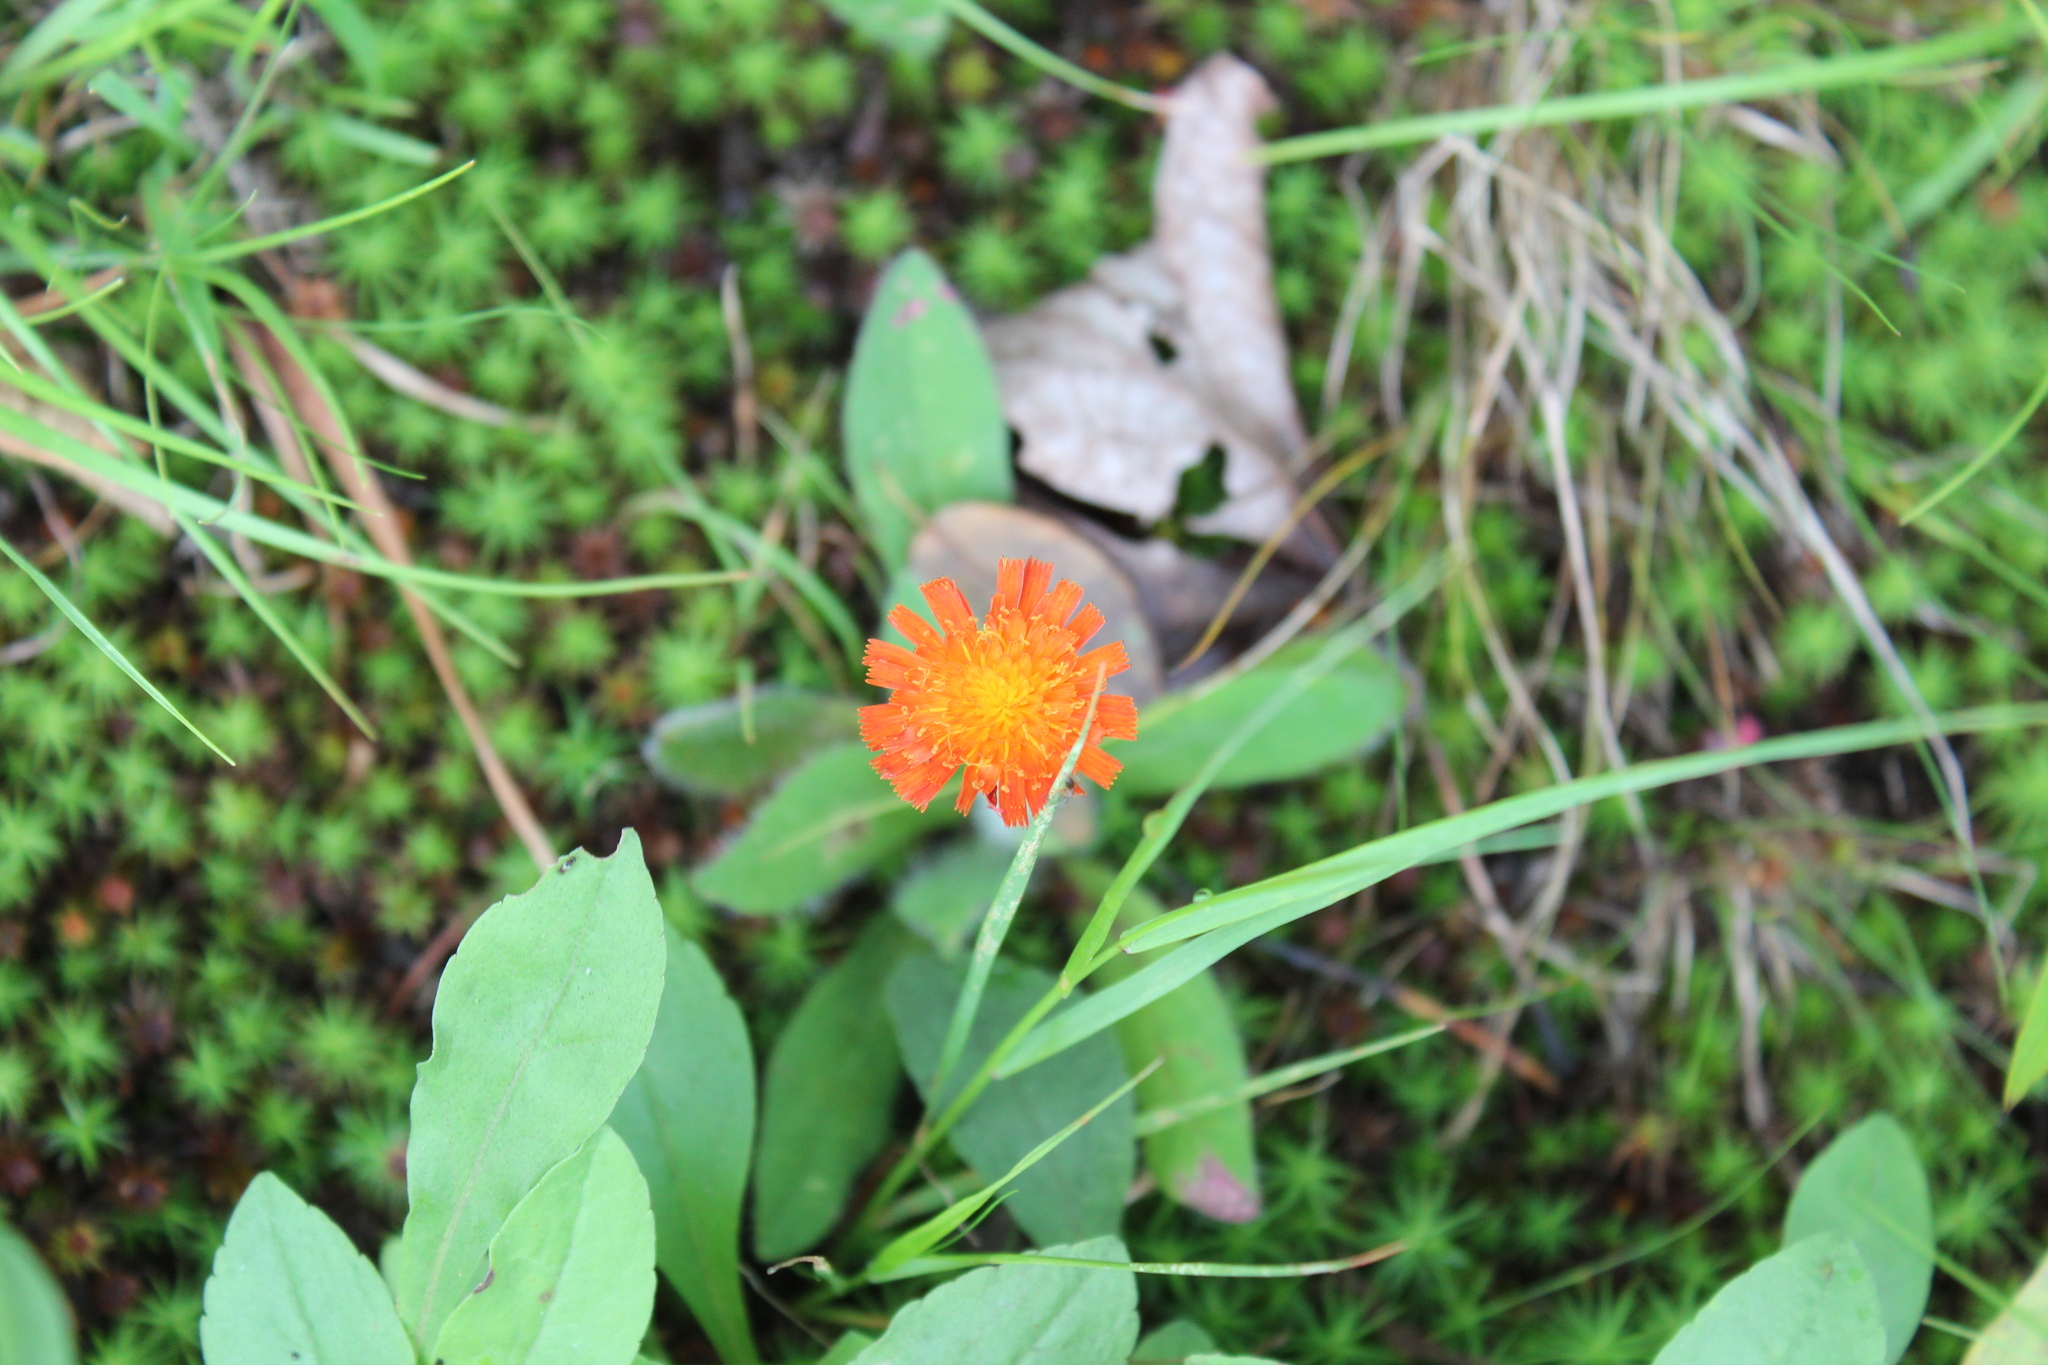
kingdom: Plantae
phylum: Tracheophyta
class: Magnoliopsida
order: Asterales
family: Asteraceae
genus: Pilosella
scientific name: Pilosella aurantiaca
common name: Fox-and-cubs
